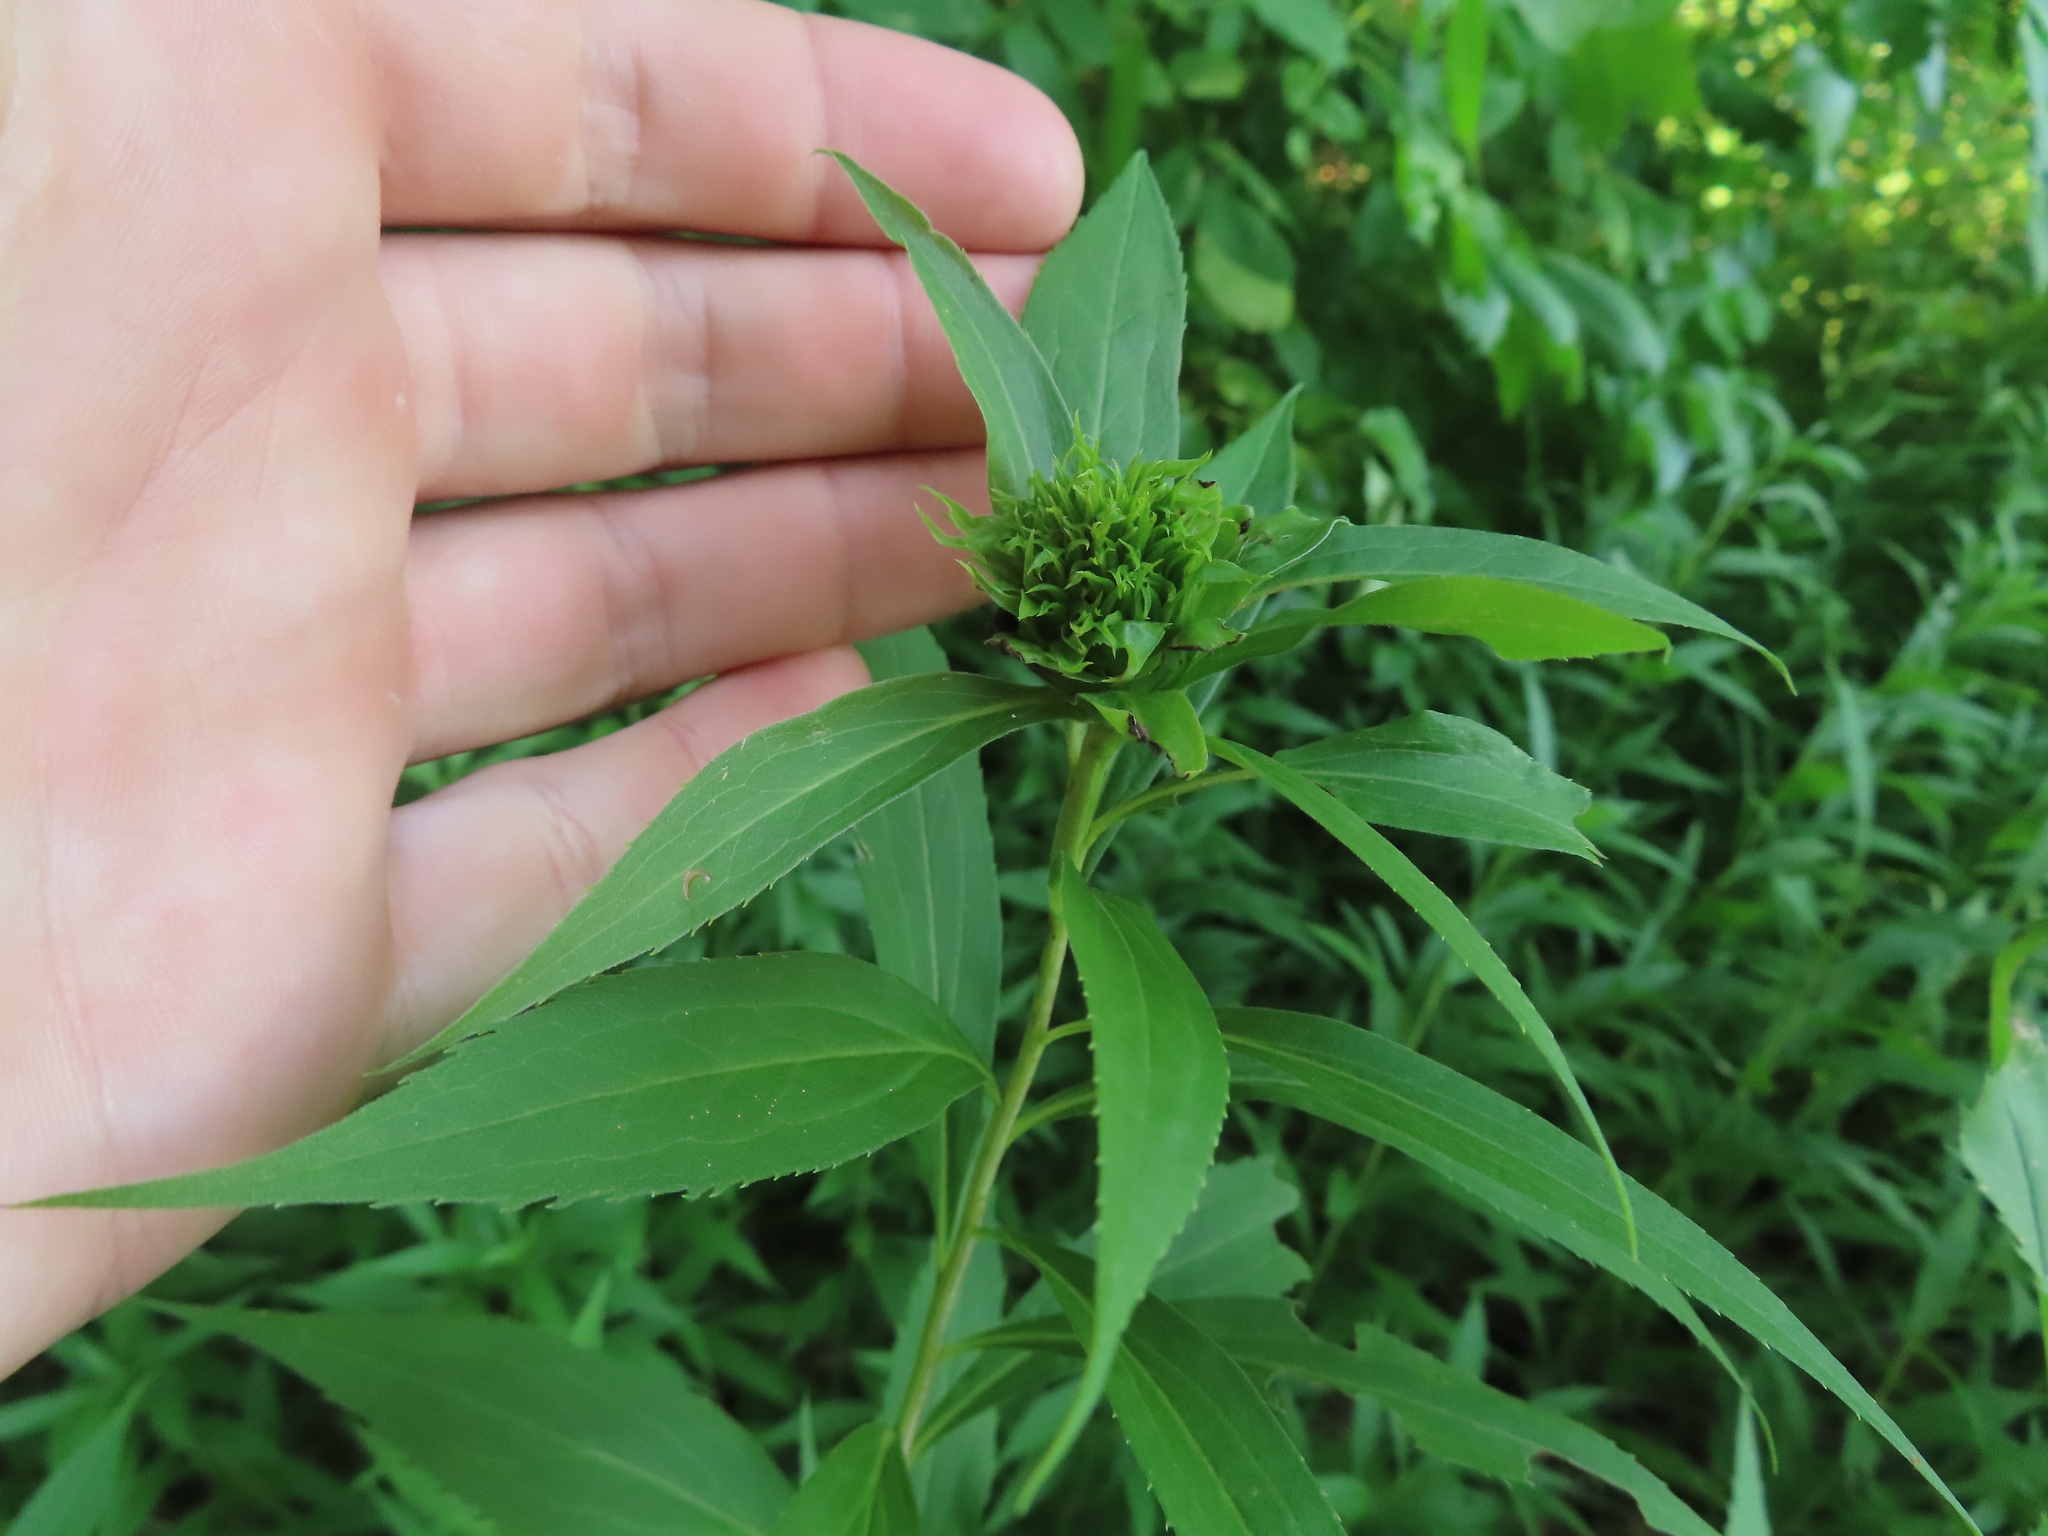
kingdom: Animalia
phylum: Arthropoda
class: Insecta
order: Diptera
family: Cecidomyiidae
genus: Rhopalomyia
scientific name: Rhopalomyia capitata
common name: Giant goldenrod bunch gall midge
